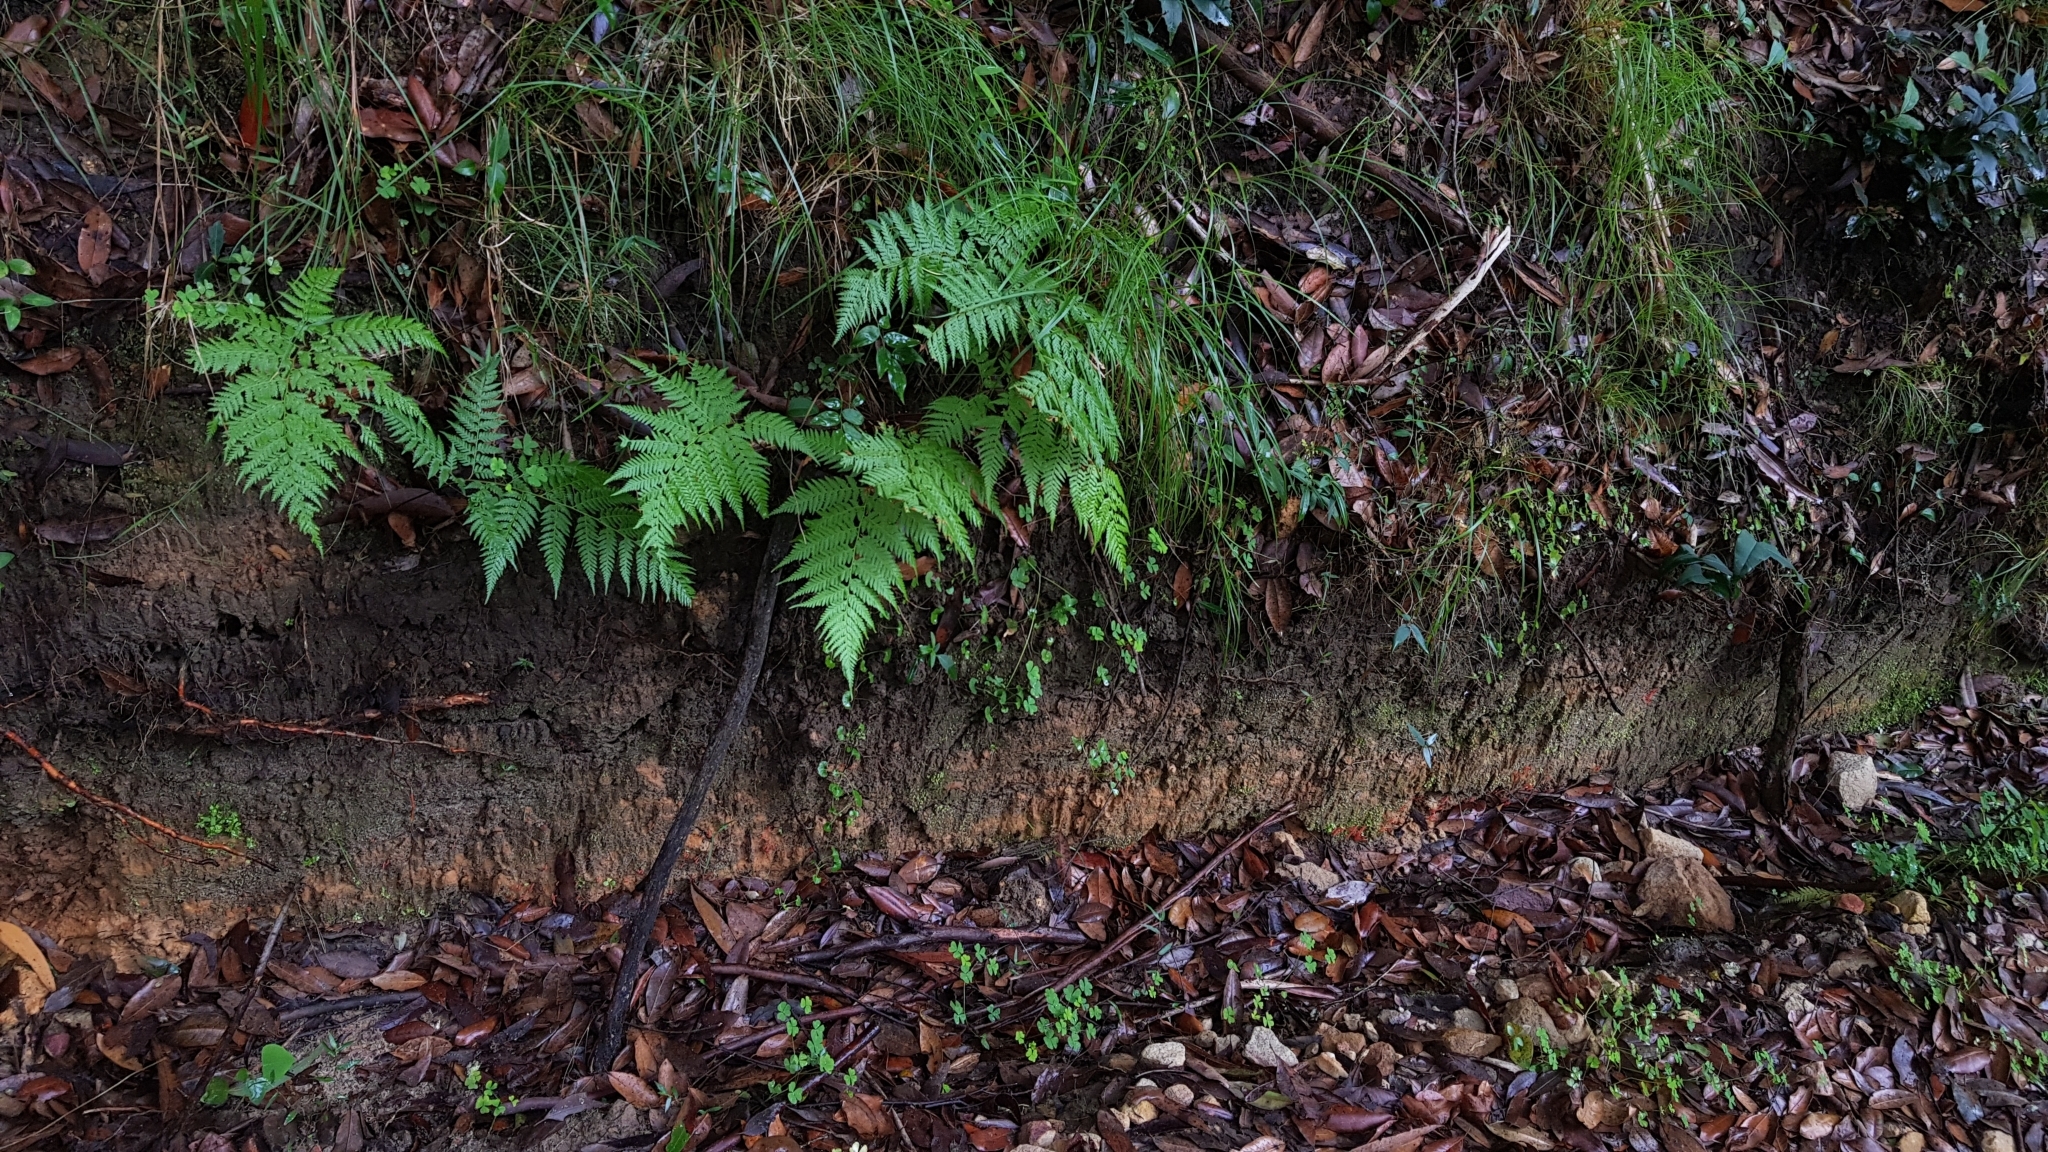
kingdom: Fungi
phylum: Basidiomycota
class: Agaricomycetes
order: Agaricales
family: Clavariaceae
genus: Clavulinopsis
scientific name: Clavulinopsis corallinorosacea
